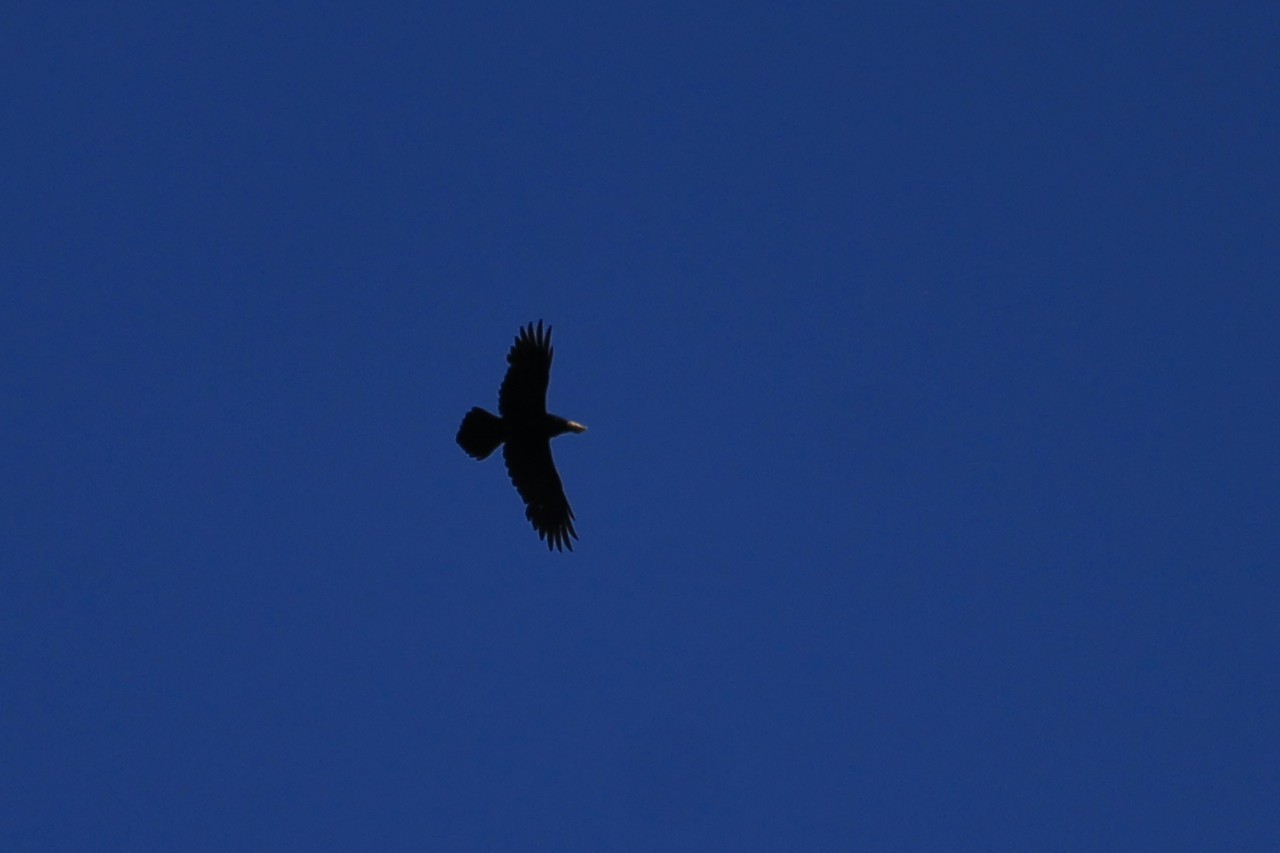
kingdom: Animalia
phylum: Chordata
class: Aves
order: Passeriformes
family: Corvidae
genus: Corvus
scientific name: Corvus corax
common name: Common raven
